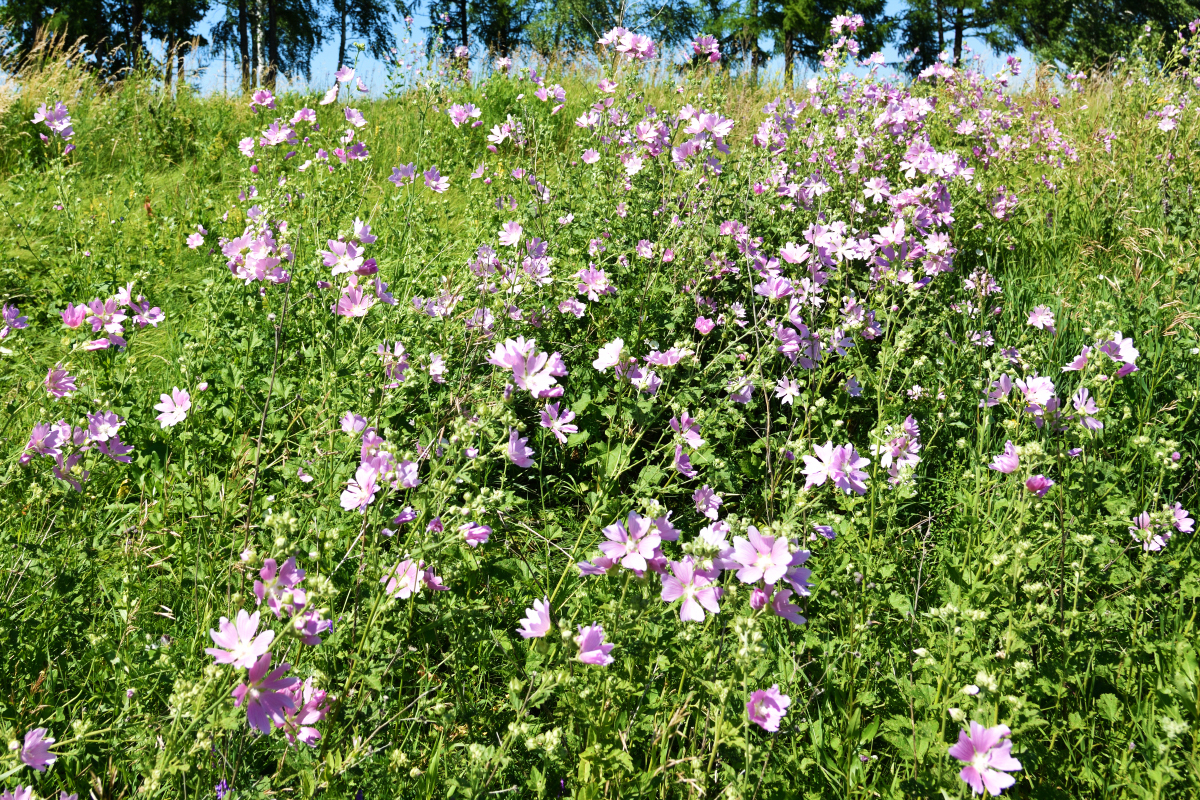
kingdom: Plantae
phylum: Tracheophyta
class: Magnoliopsida
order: Malvales
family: Malvaceae
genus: Malva
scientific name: Malva thuringiaca
